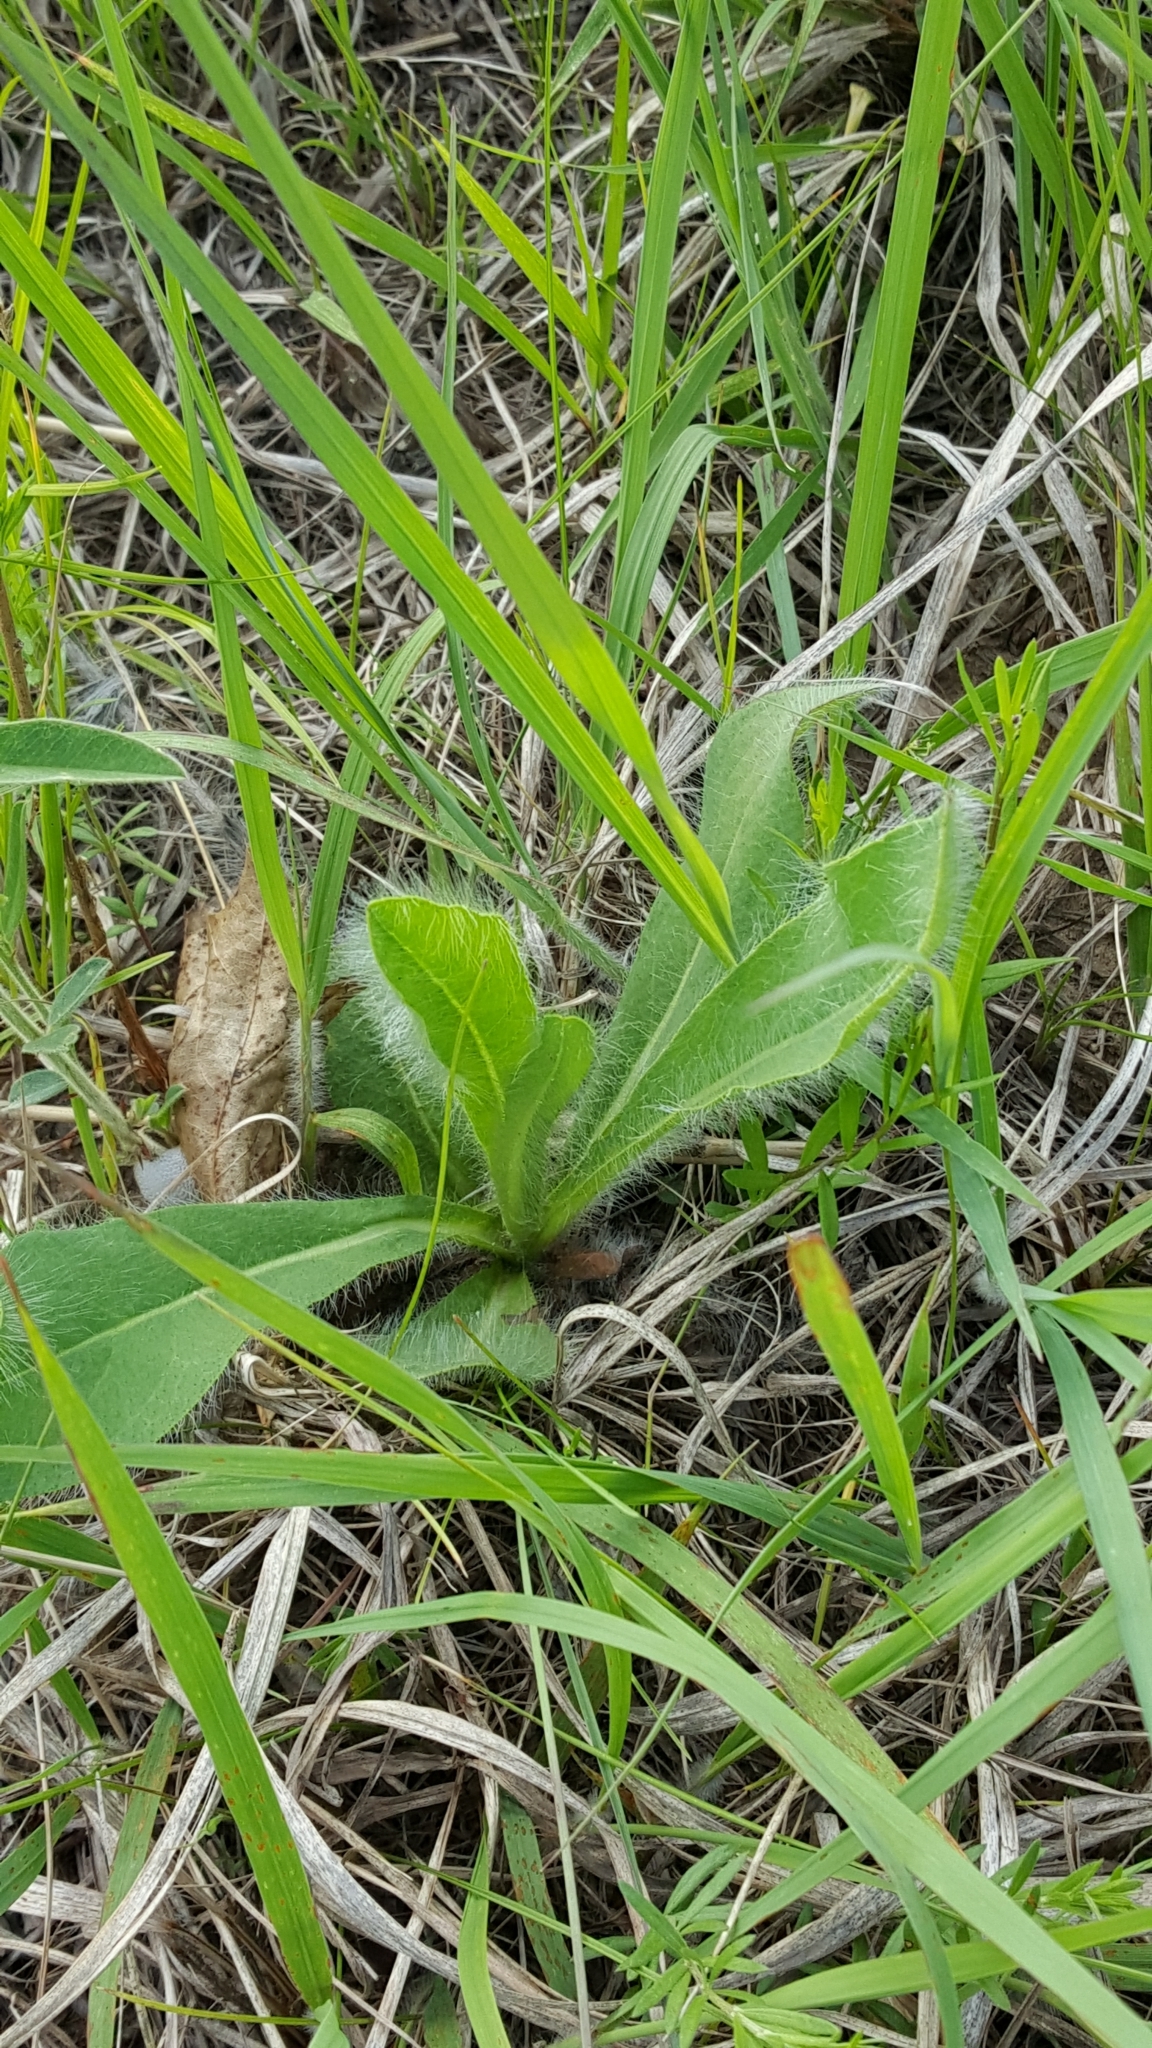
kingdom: Plantae
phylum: Tracheophyta
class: Magnoliopsida
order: Asterales
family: Asteraceae
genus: Hieracium
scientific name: Hieracium longipilum
